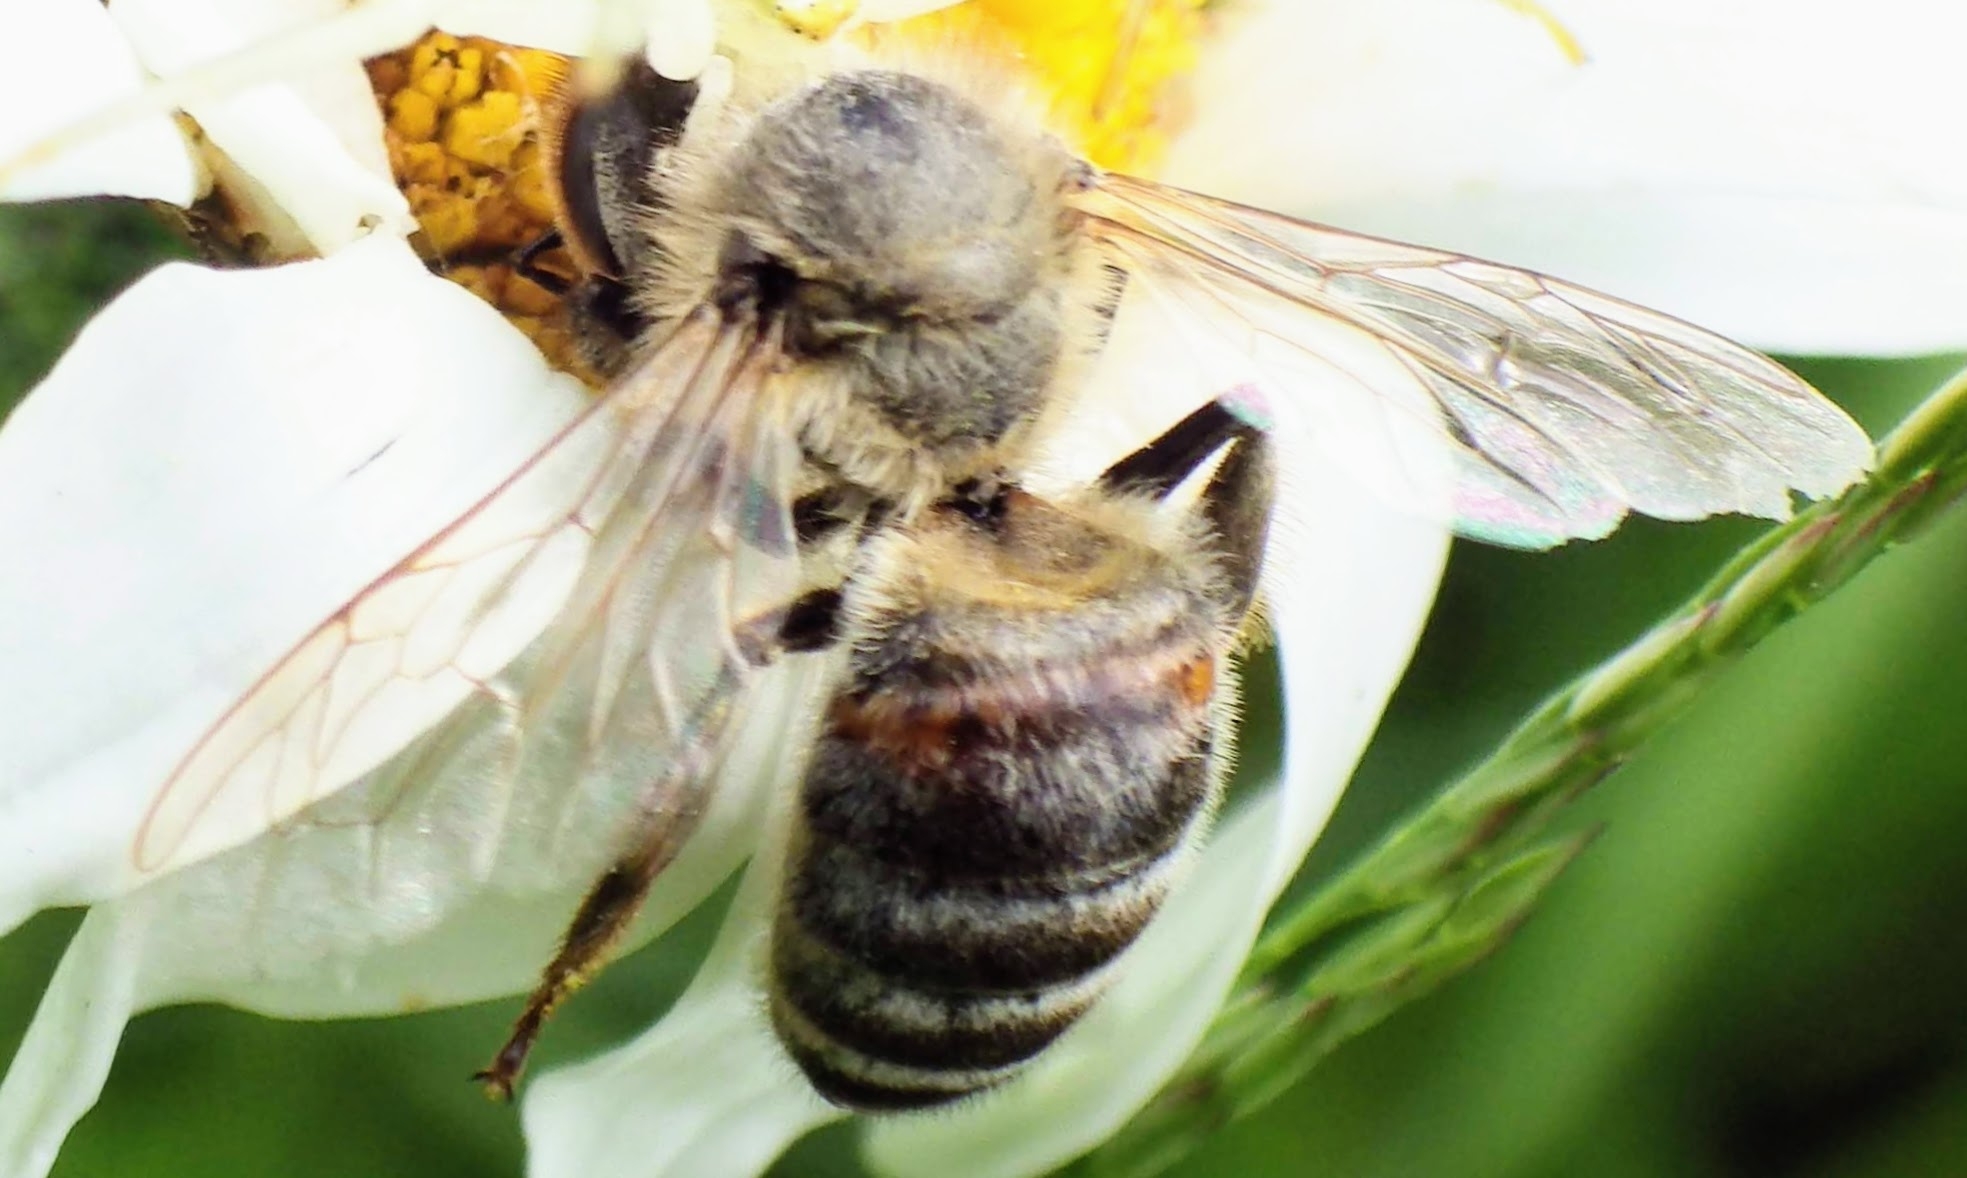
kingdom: Animalia
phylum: Arthropoda
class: Insecta
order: Hymenoptera
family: Apidae
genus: Apis
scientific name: Apis mellifera
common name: Honey bee
